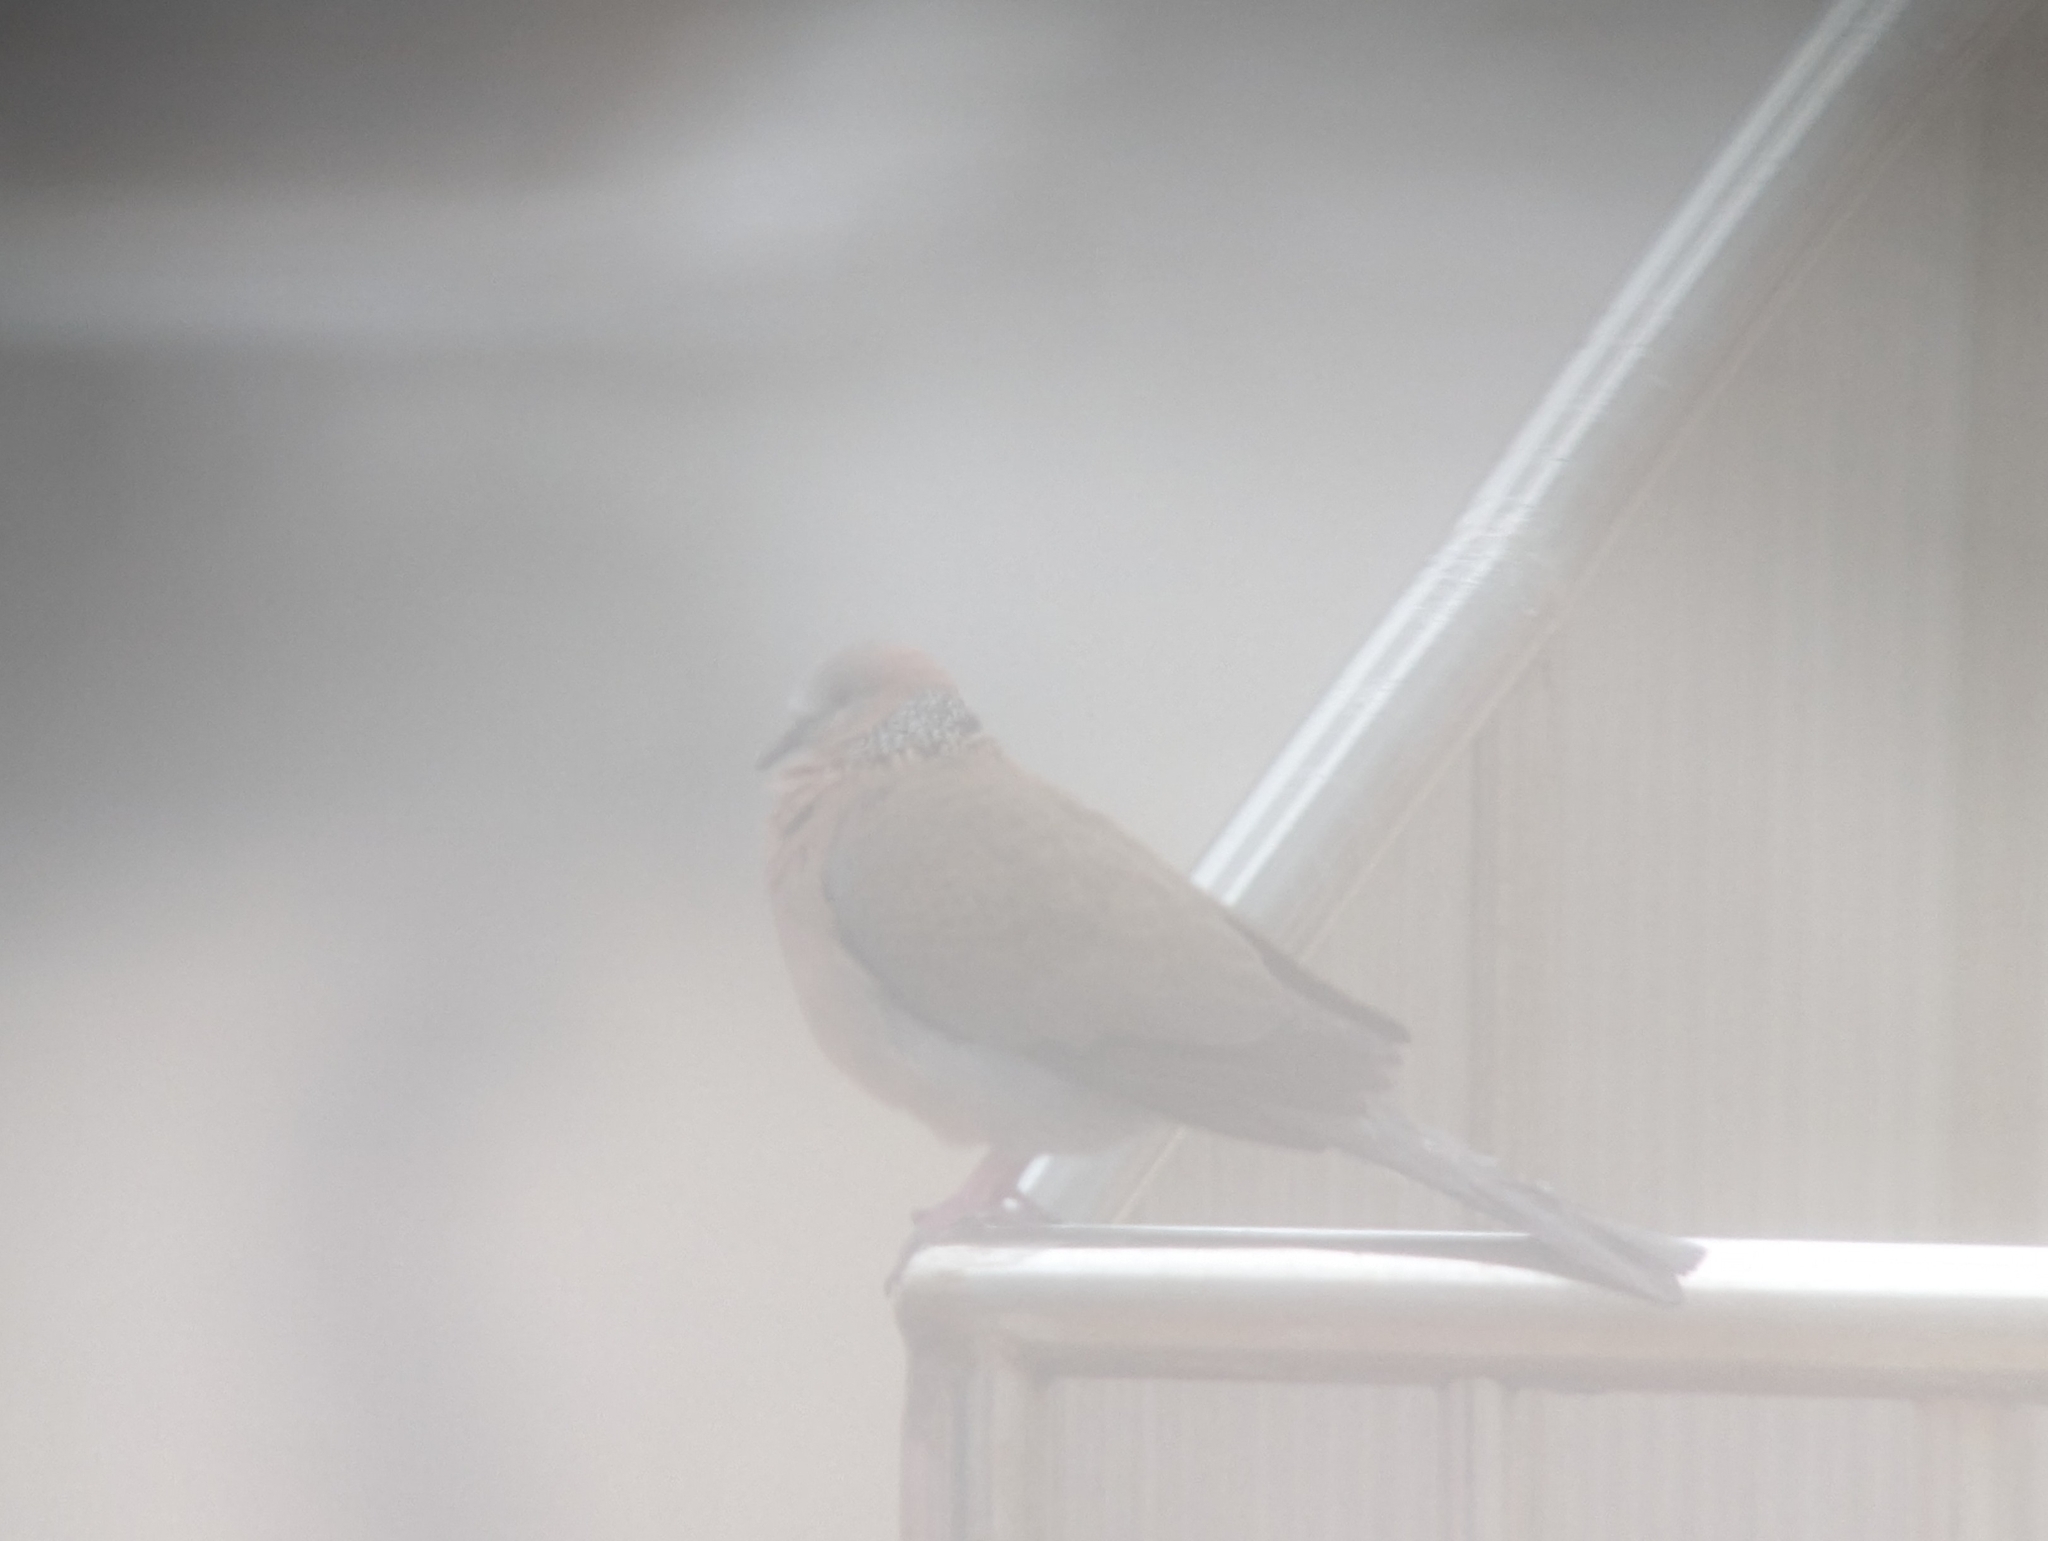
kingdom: Animalia
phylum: Chordata
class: Aves
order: Columbiformes
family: Columbidae
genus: Spilopelia
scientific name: Spilopelia chinensis
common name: Spotted dove
